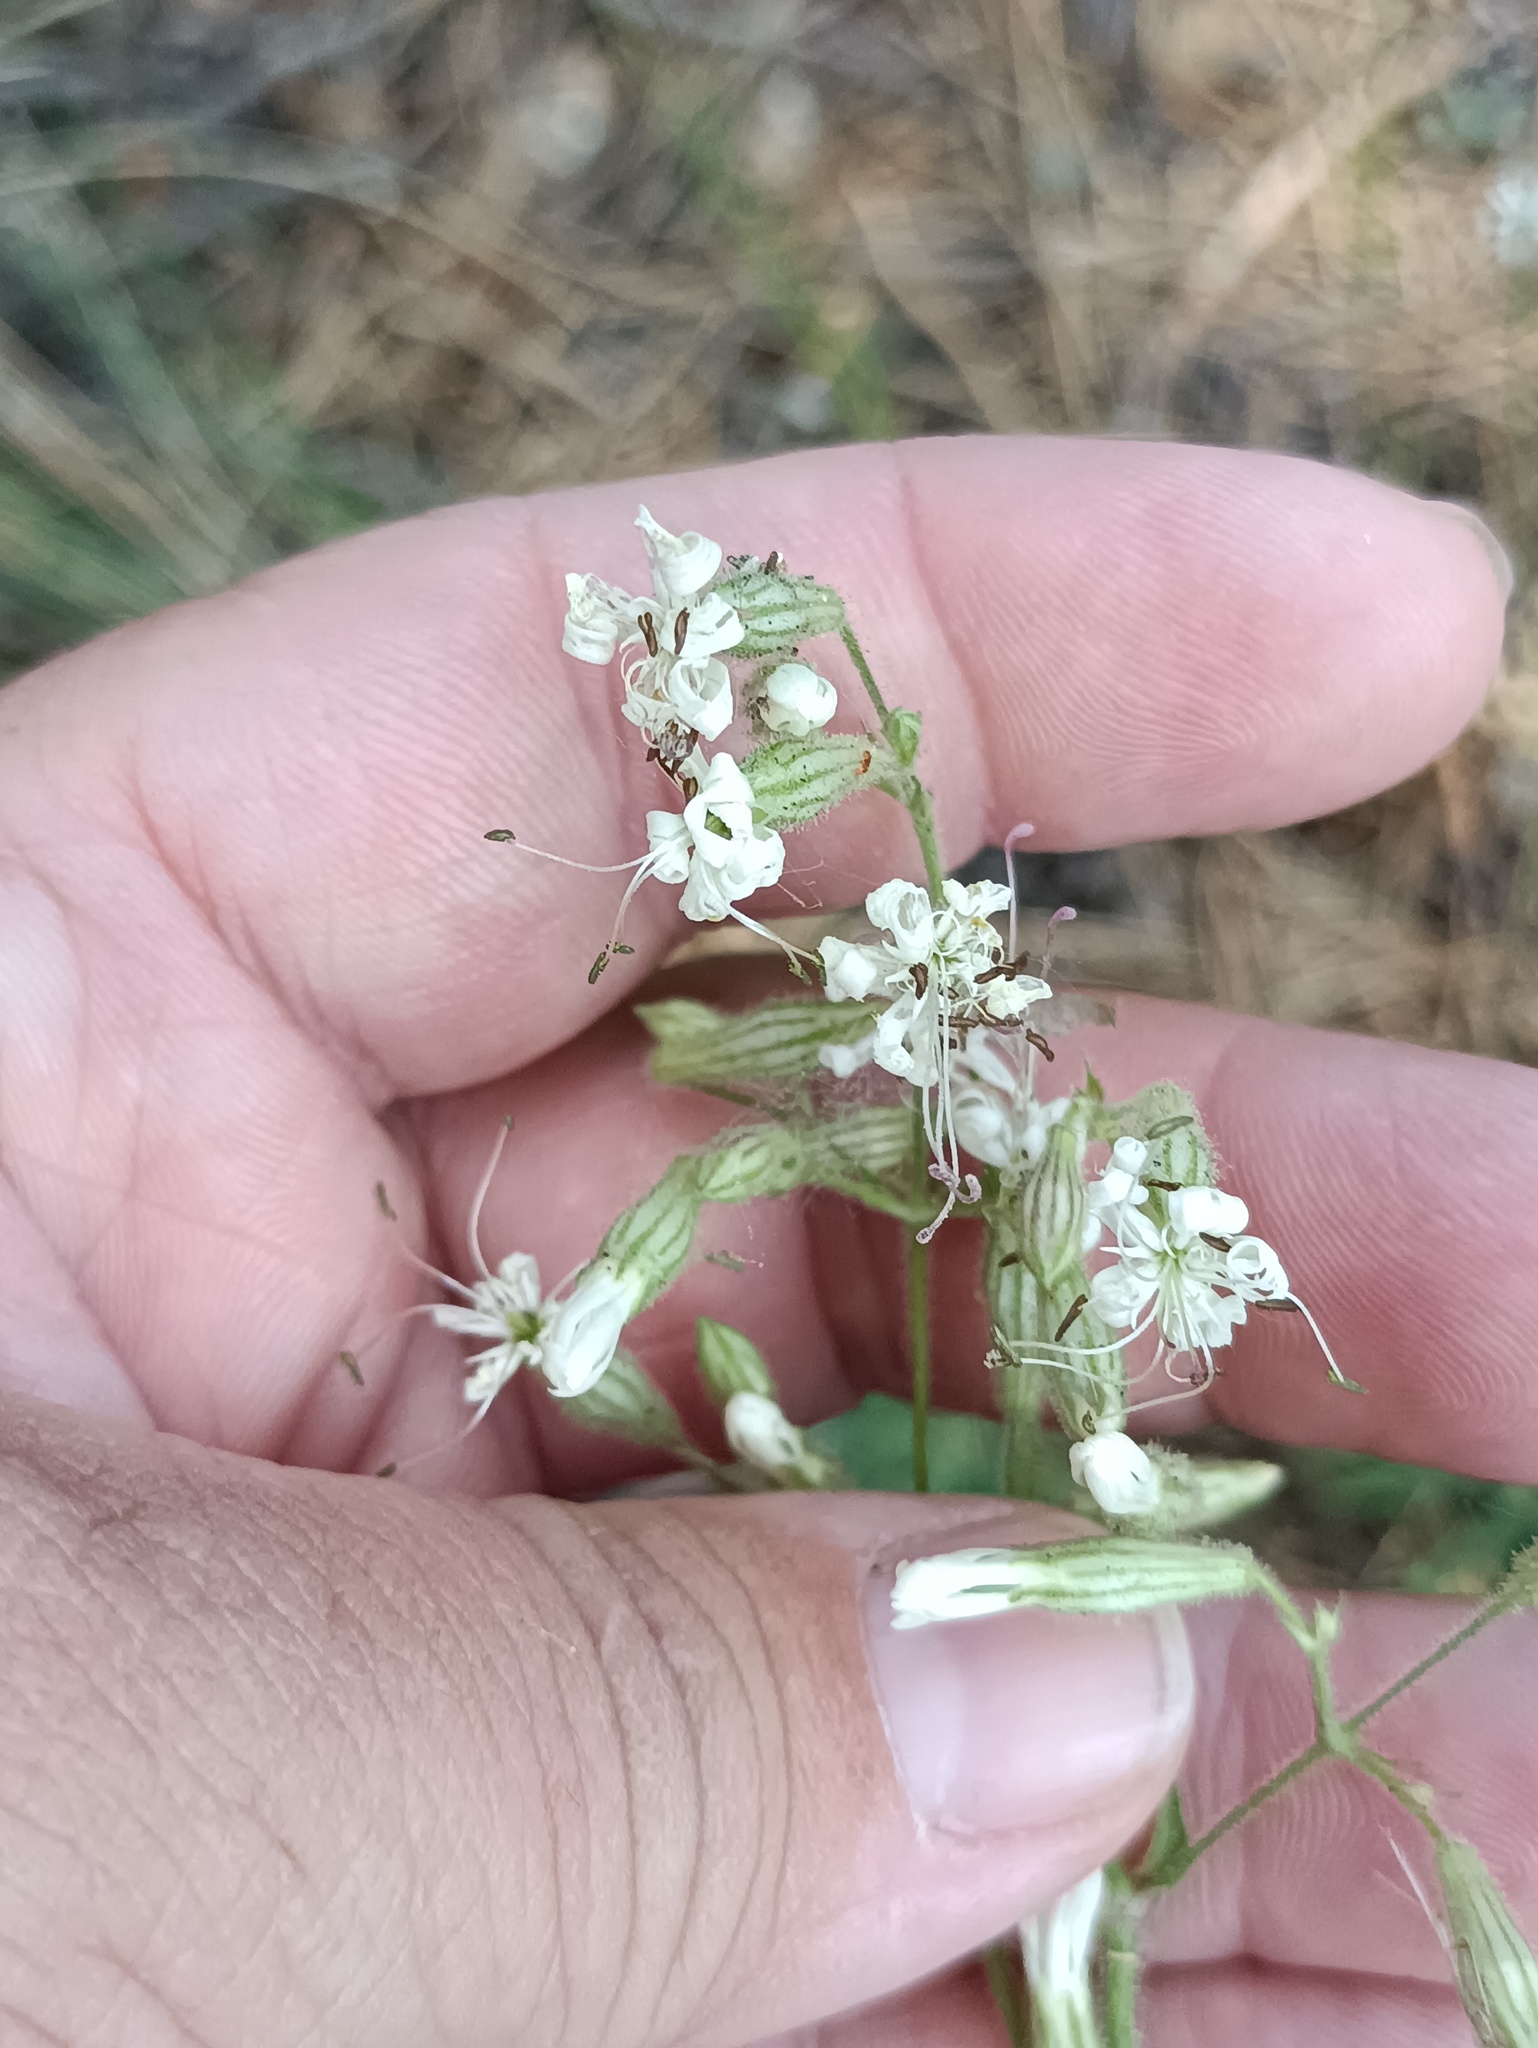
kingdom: Plantae
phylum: Tracheophyta
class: Magnoliopsida
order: Caryophyllales
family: Caryophyllaceae
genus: Silene
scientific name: Silene nutans
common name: Nottingham catchfly
